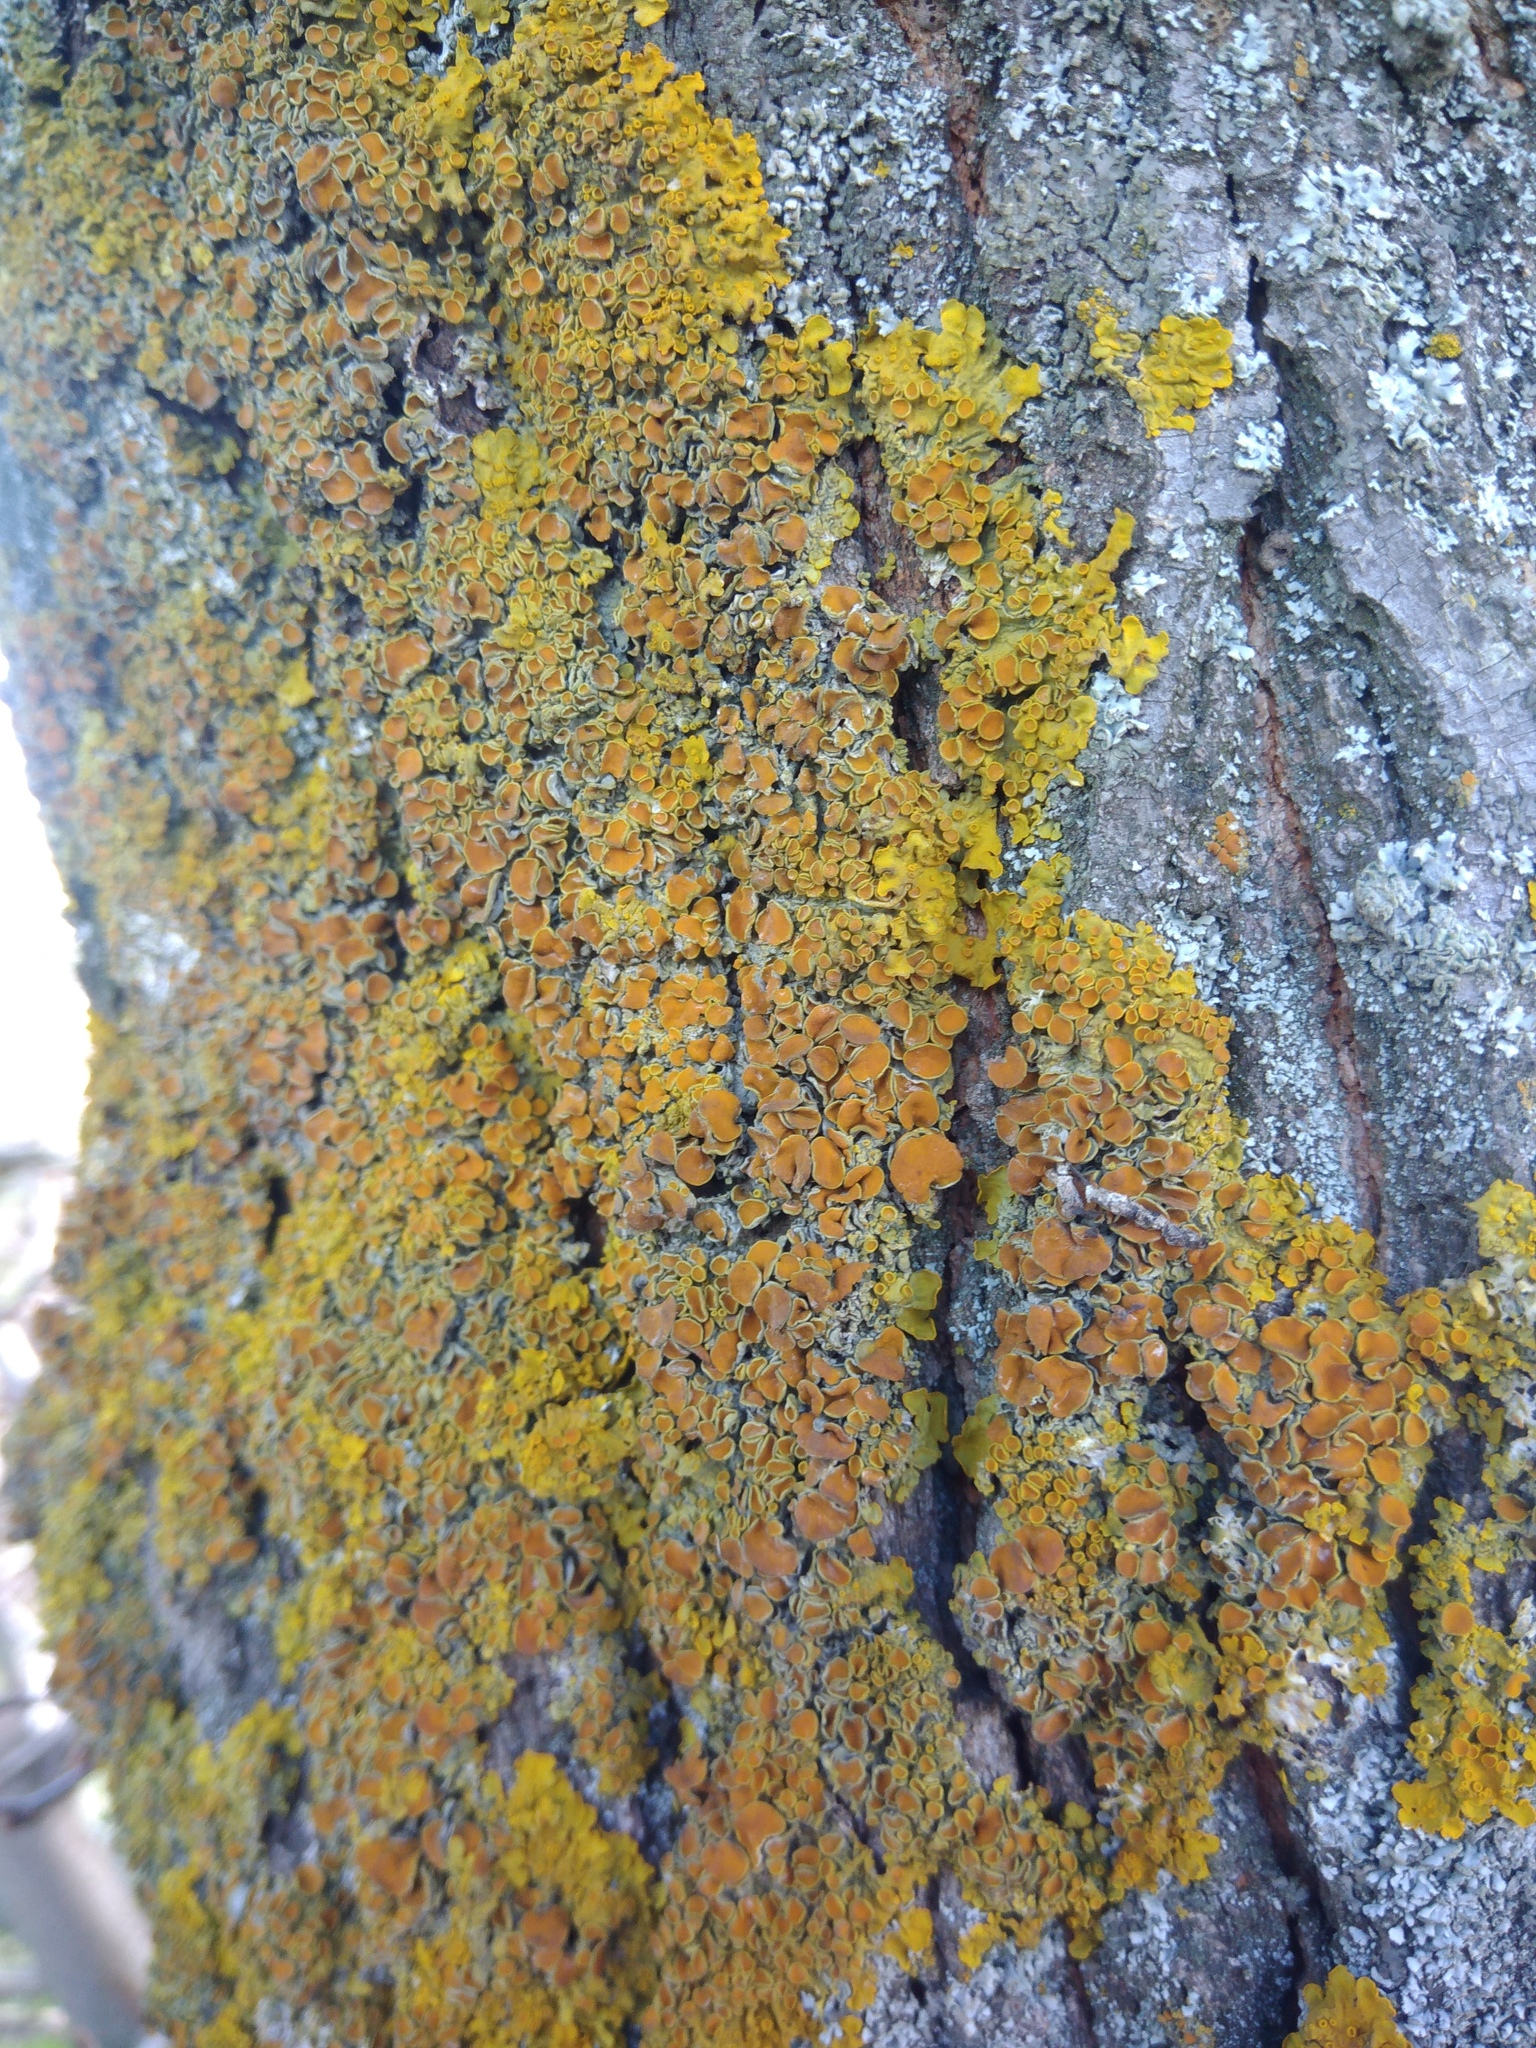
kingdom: Fungi
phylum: Ascomycota
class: Lecanoromycetes
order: Teloschistales
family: Teloschistaceae
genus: Xanthoria
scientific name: Xanthoria parietina
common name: Common orange lichen
